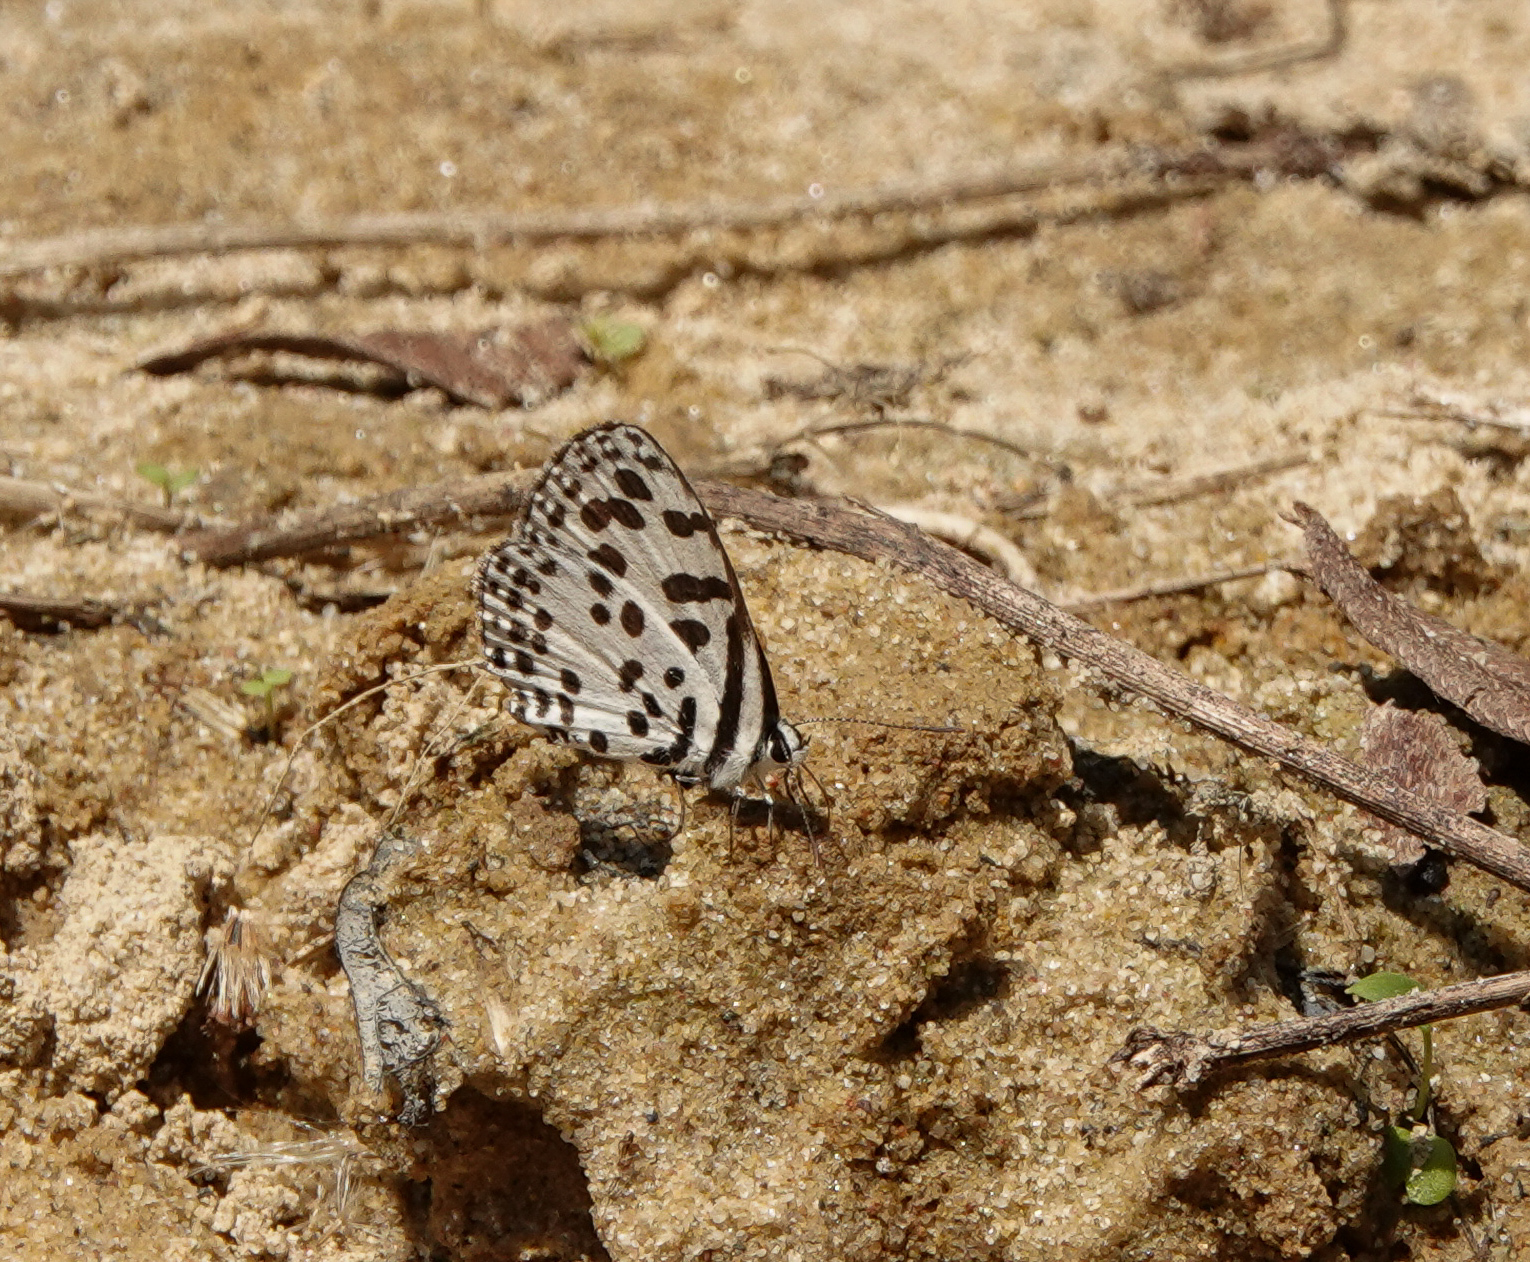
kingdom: Animalia
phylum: Arthropoda
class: Insecta
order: Lepidoptera
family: Lycaenidae
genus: Castalius
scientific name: Castalius rosimon
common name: Common pierrot
